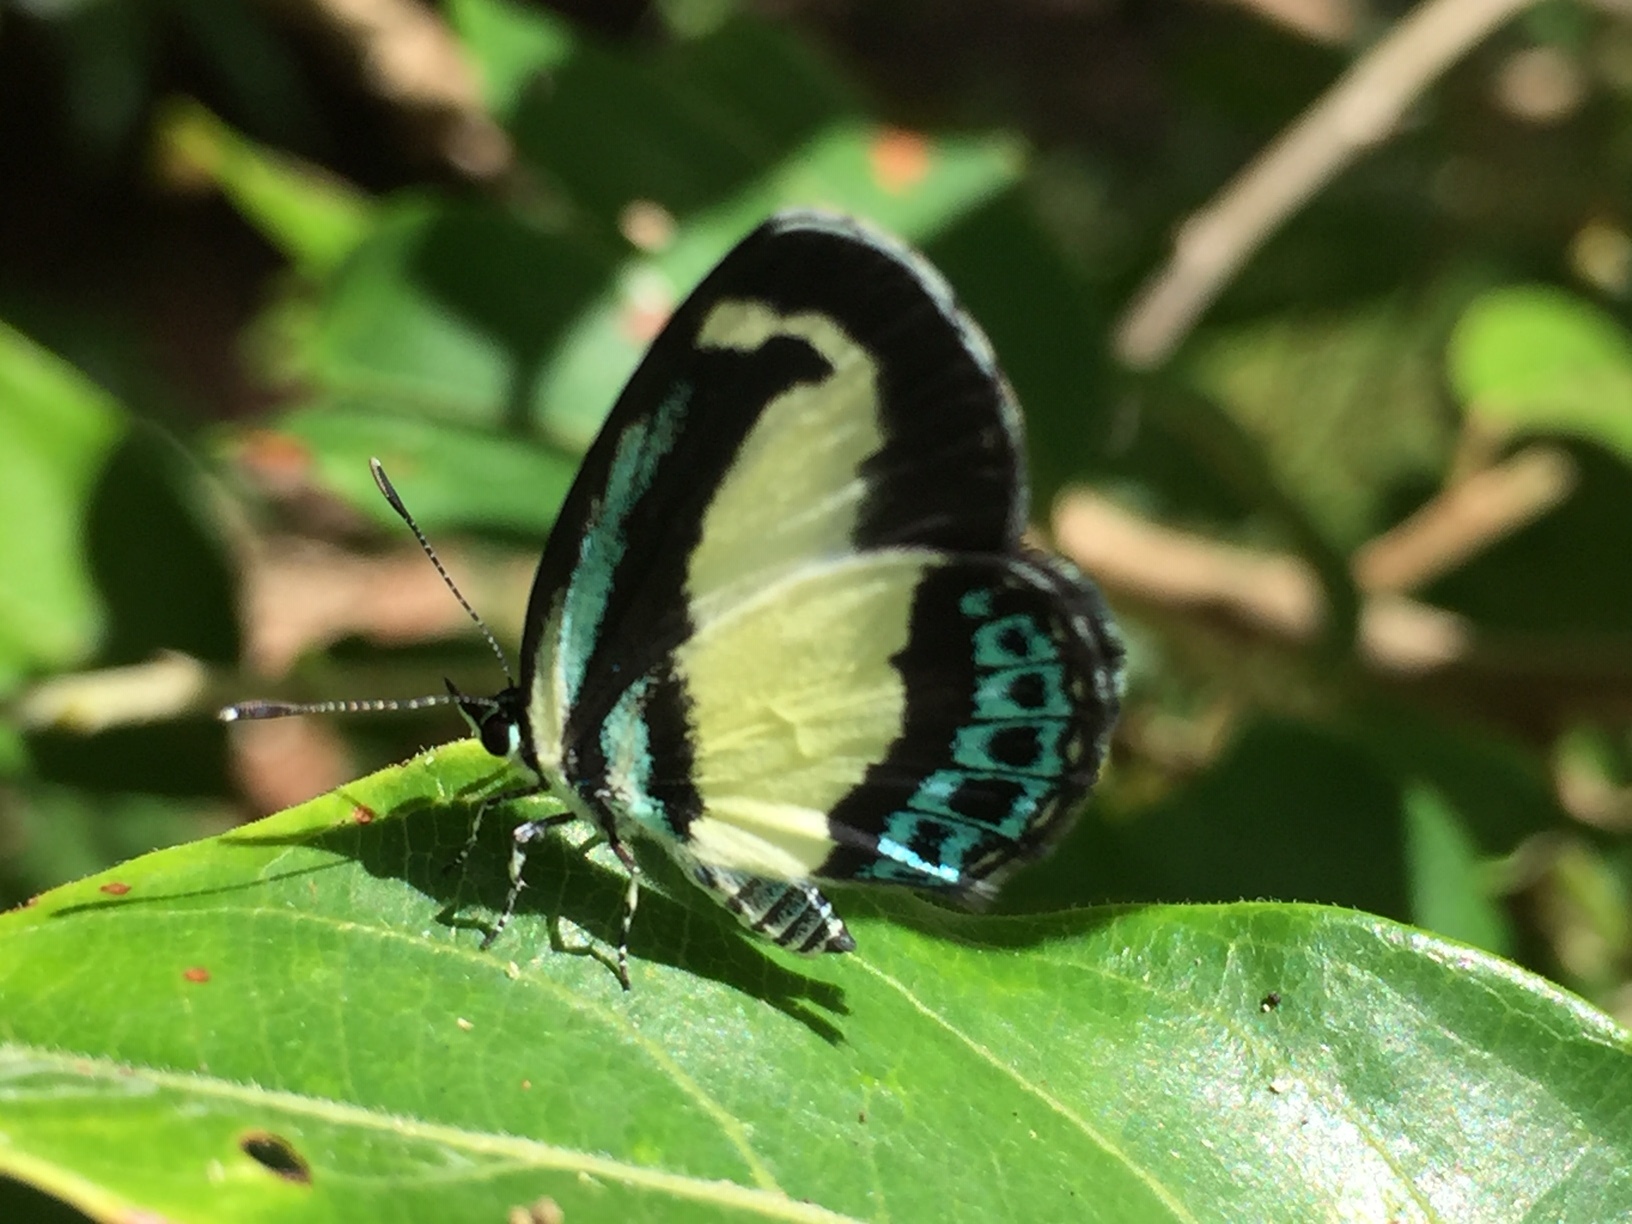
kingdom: Animalia
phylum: Arthropoda
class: Insecta
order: Lepidoptera
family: Lycaenidae
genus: Psychonotis
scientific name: Psychonotis caelius
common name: Small green banded blue
